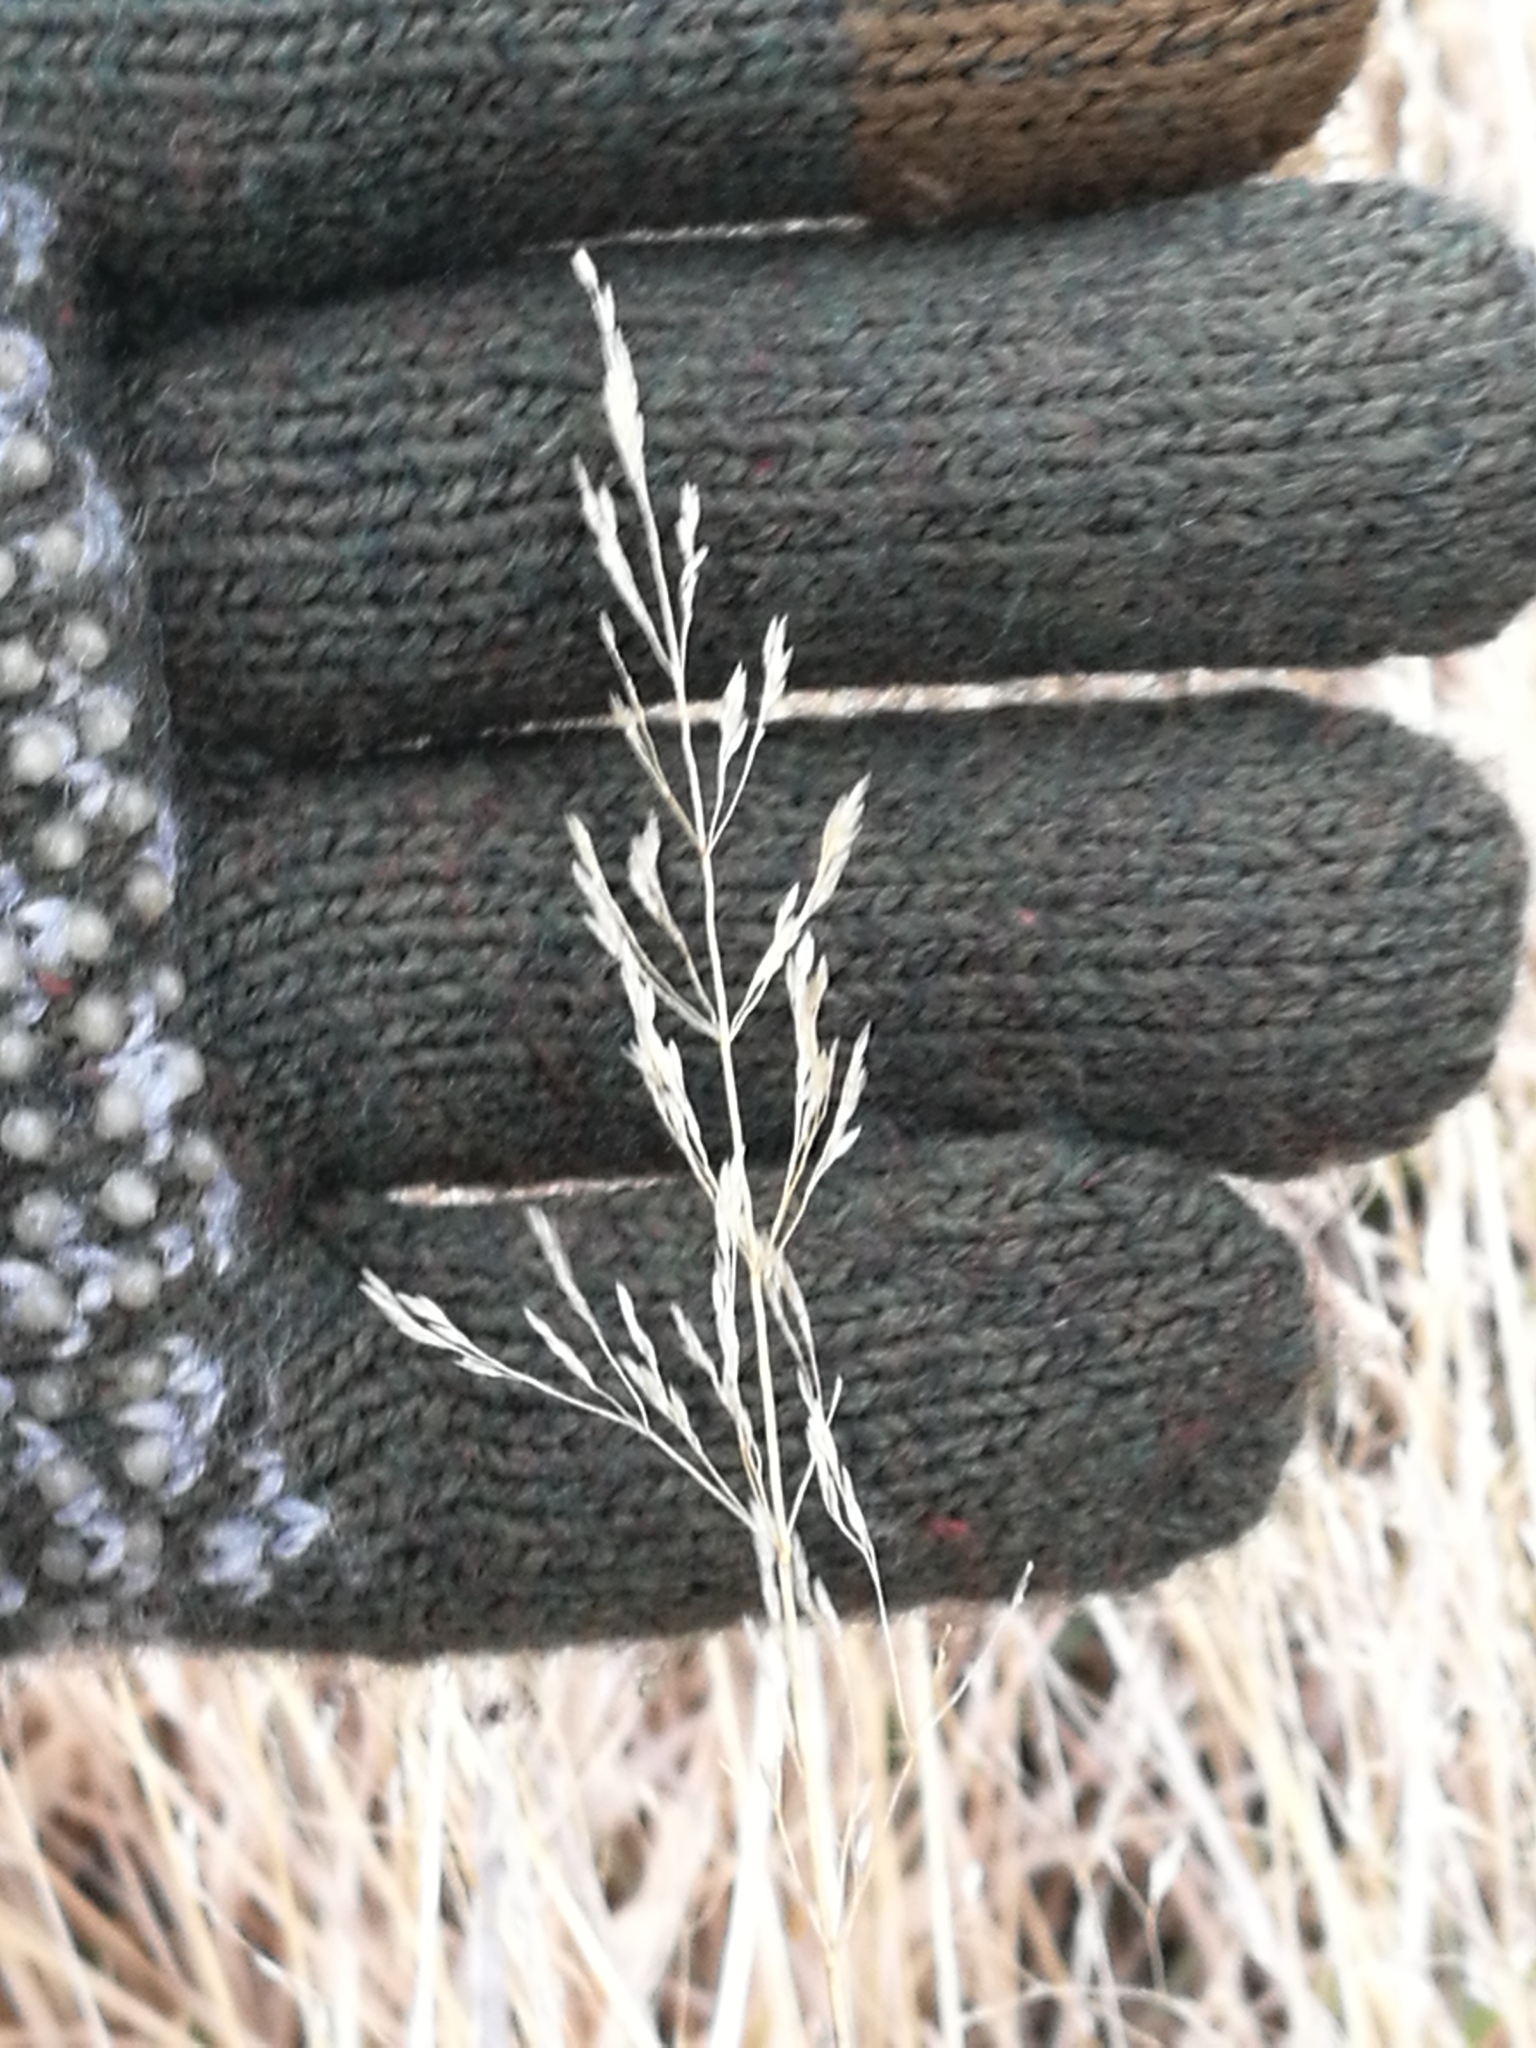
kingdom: Plantae
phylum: Tracheophyta
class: Liliopsida
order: Poales
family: Poaceae
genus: Agrostis
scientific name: Agrostis capillaris
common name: Colonial bentgrass
